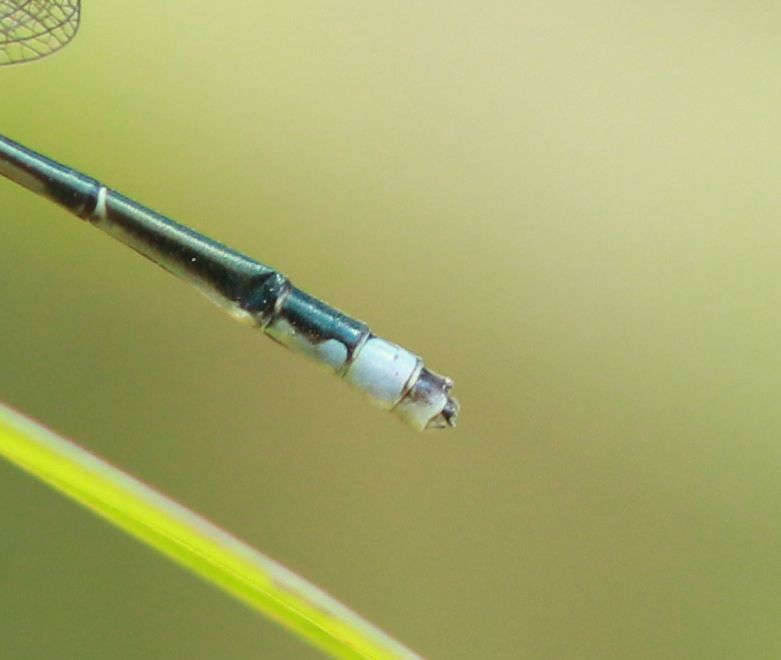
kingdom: Animalia
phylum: Arthropoda
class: Insecta
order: Odonata
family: Coenagrionidae
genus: Enallagma
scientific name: Enallagma exsulans
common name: Stream bluet
